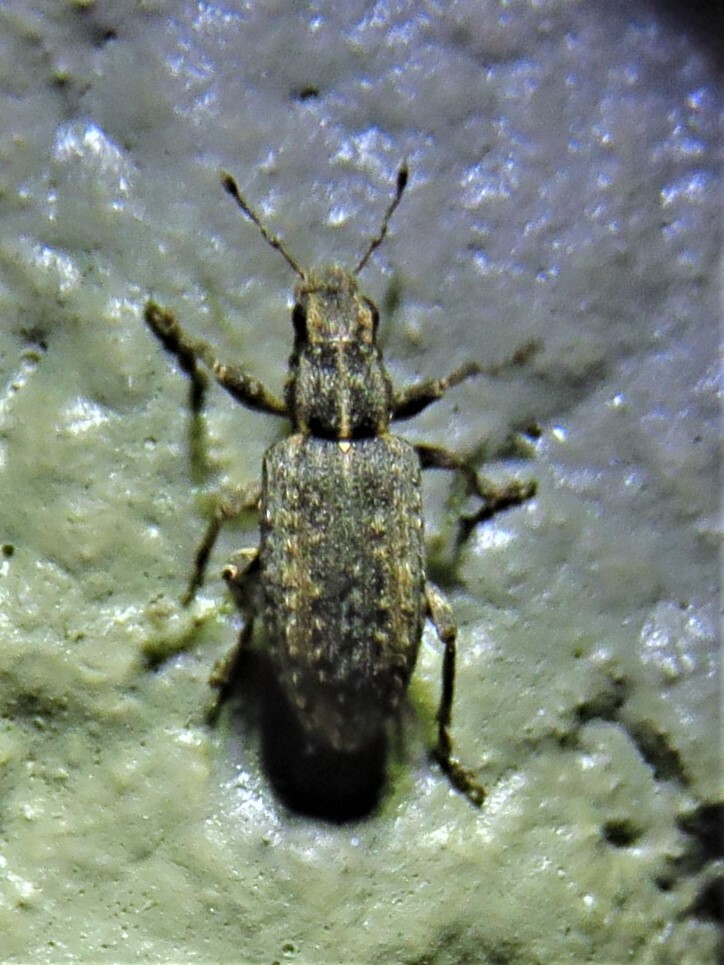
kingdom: Animalia
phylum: Arthropoda
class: Insecta
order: Coleoptera
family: Curculionidae
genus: Sitones
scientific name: Sitones californius
